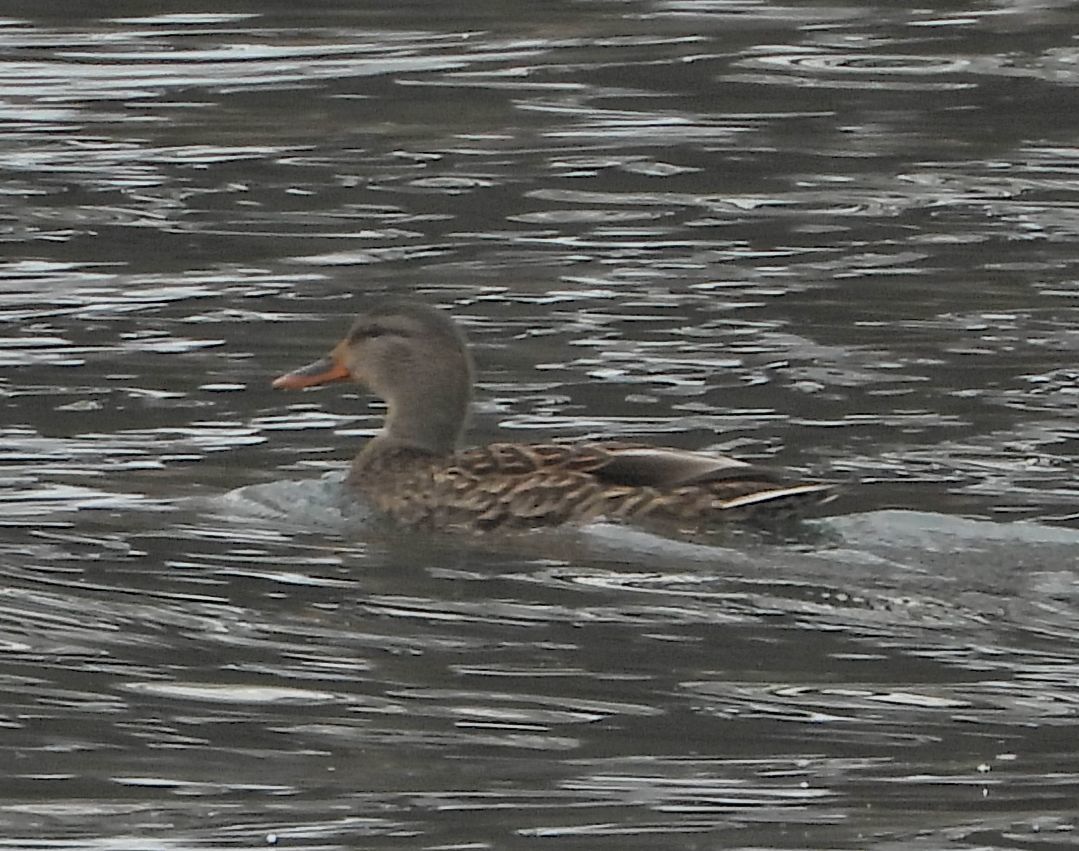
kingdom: Animalia
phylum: Chordata
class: Aves
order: Anseriformes
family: Anatidae
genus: Anas
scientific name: Anas platyrhynchos
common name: Mallard
